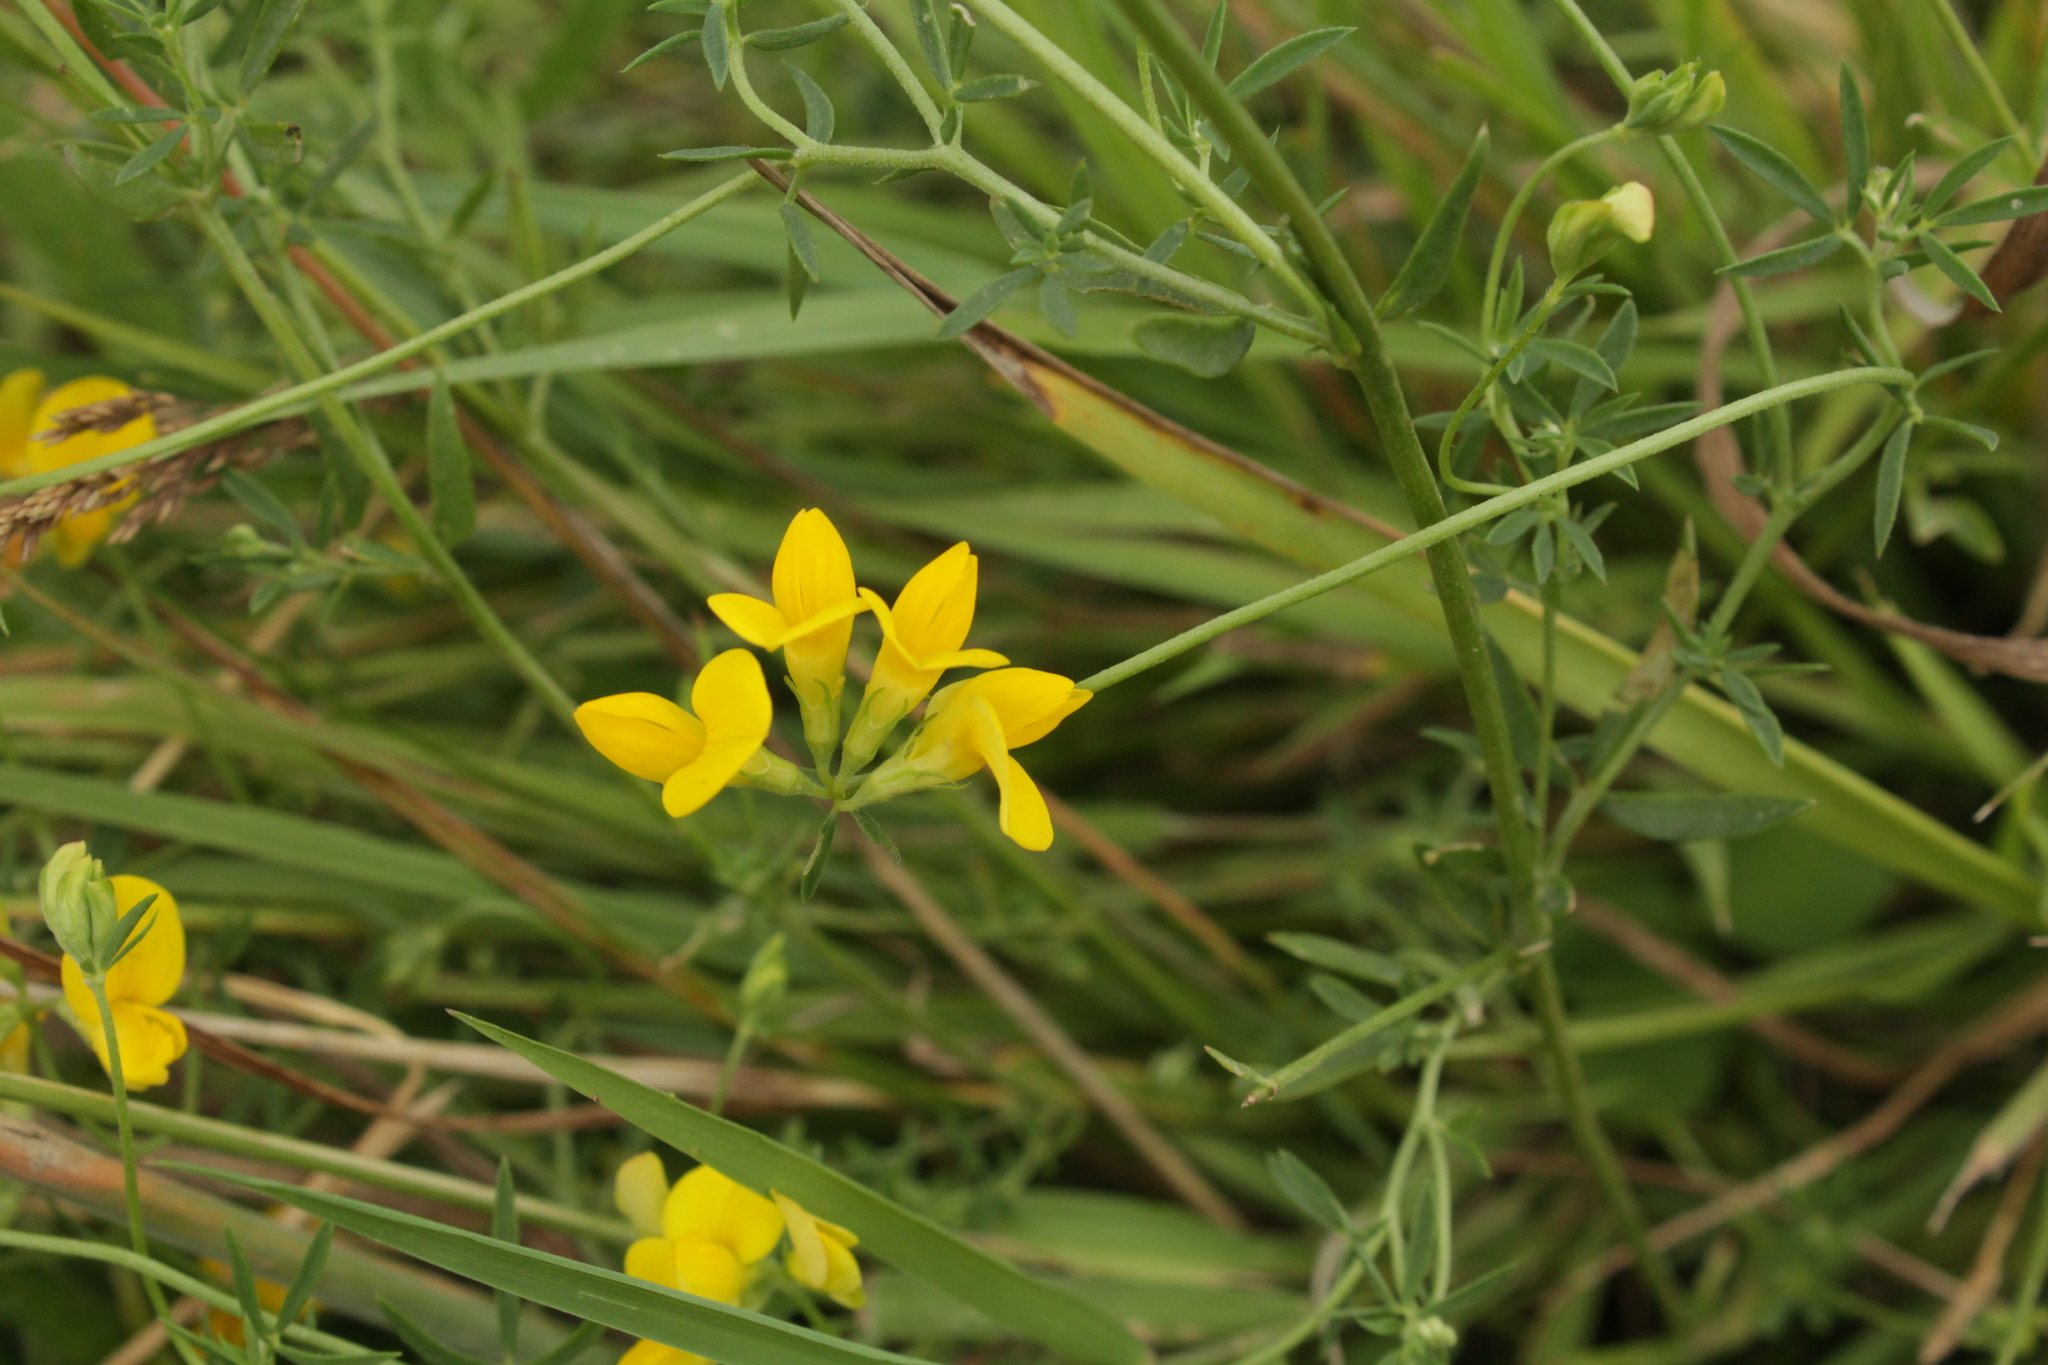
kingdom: Plantae
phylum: Tracheophyta
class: Magnoliopsida
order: Fabales
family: Fabaceae
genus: Lotus
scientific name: Lotus tenuis
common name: Narrow-leaved bird's-foot-trefoil
